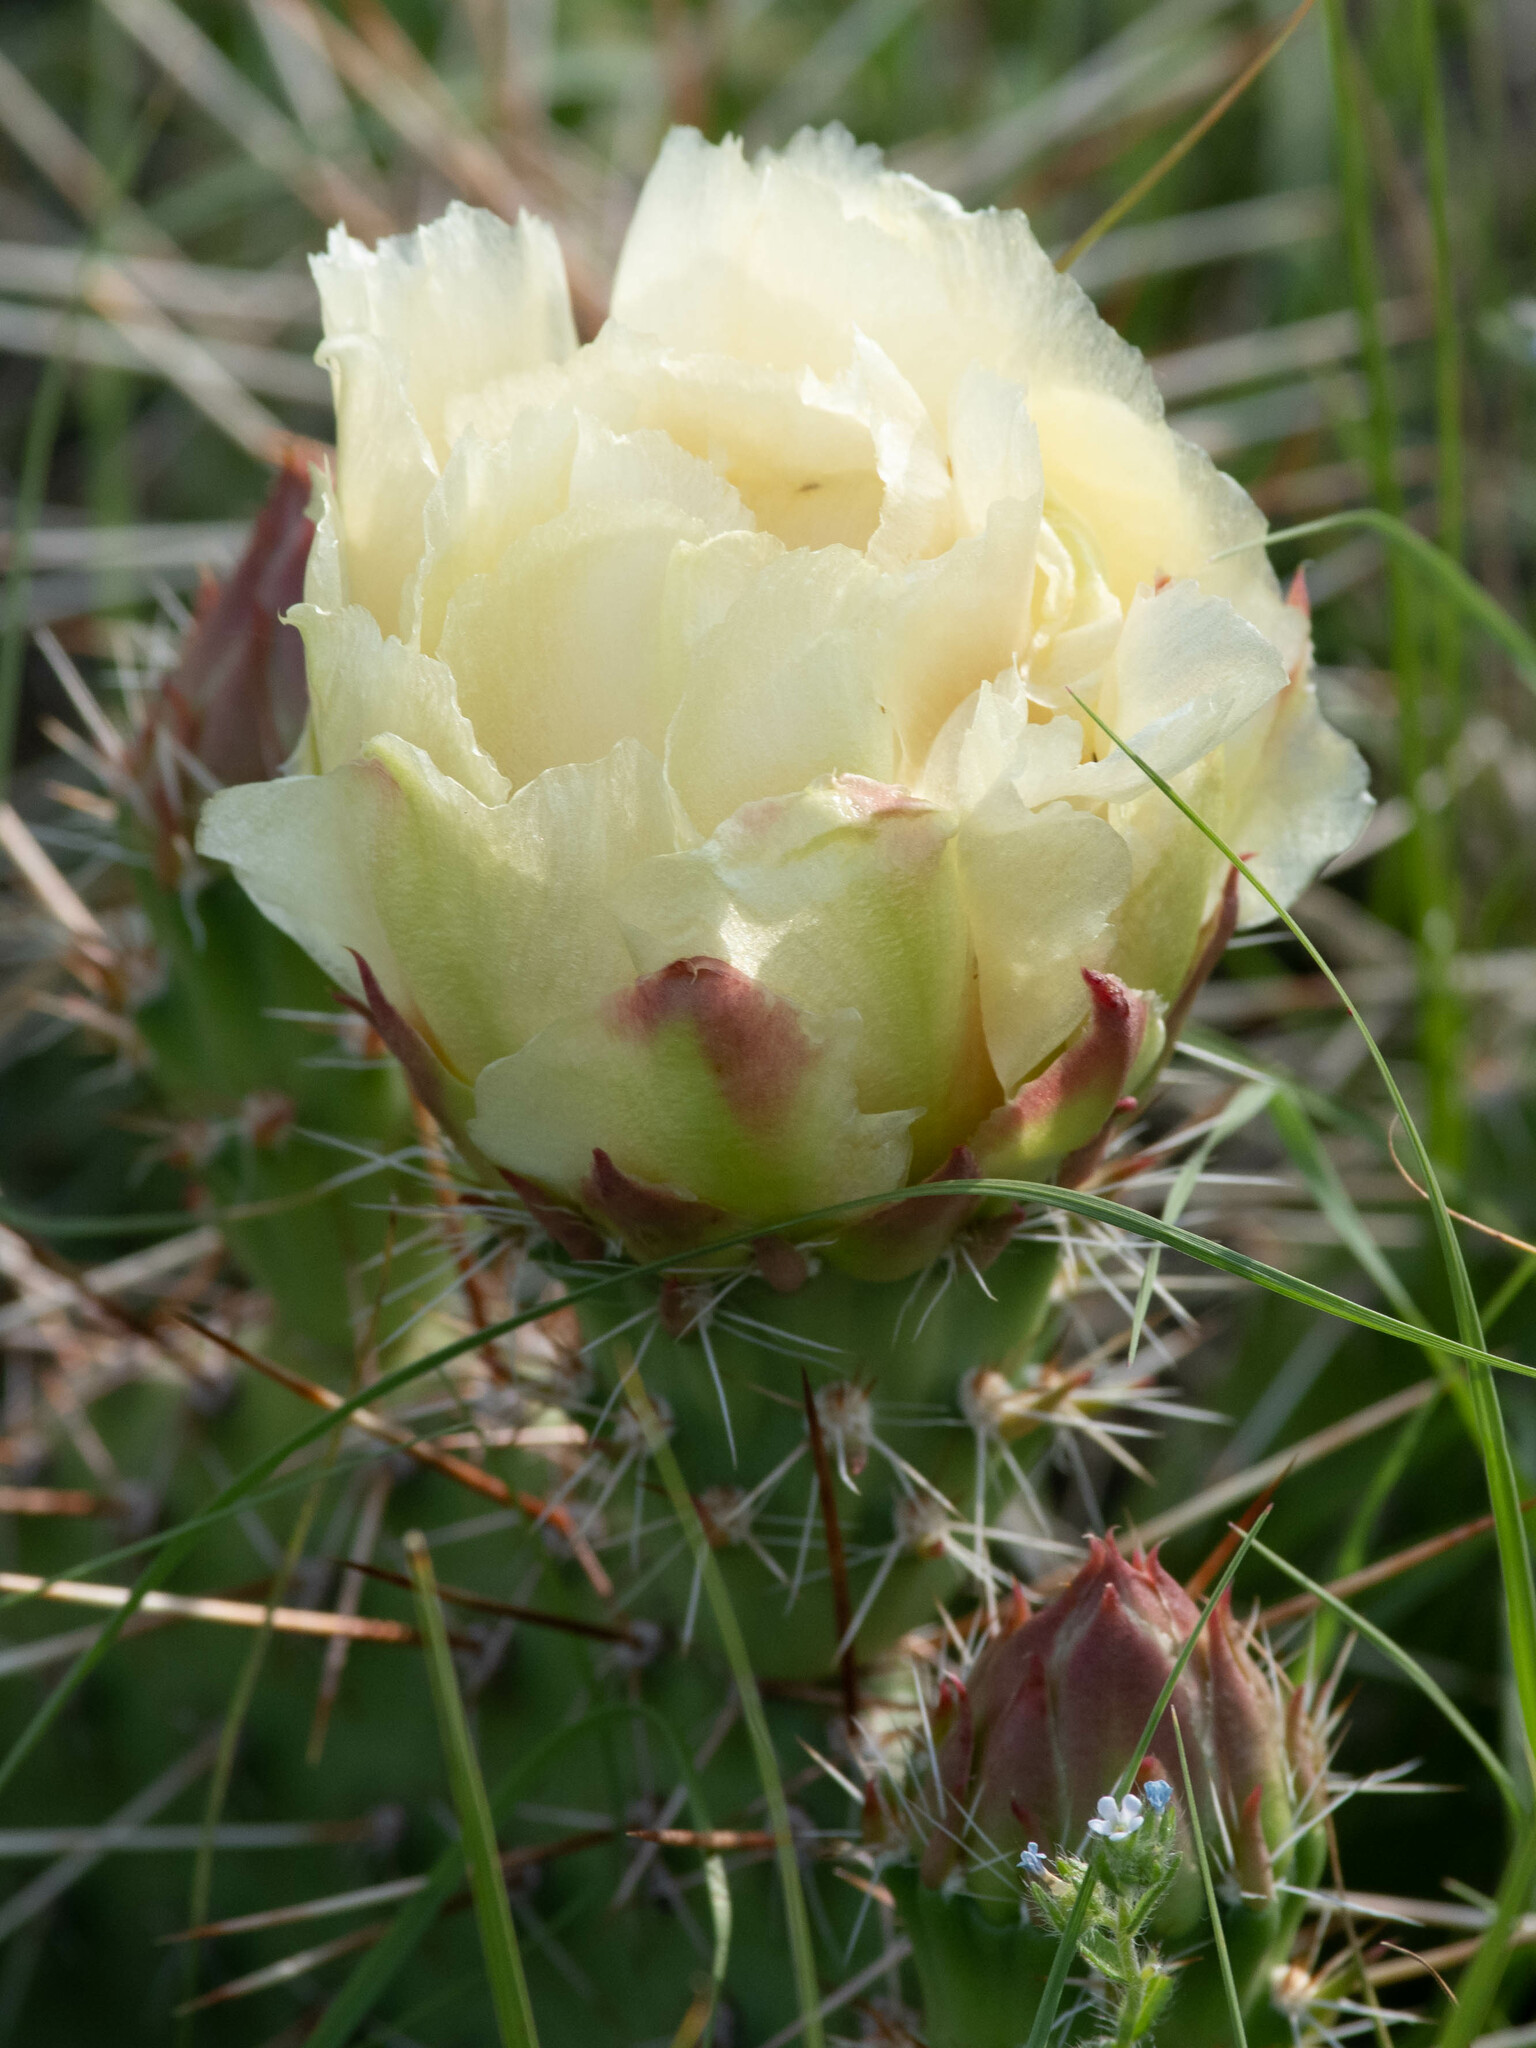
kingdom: Plantae
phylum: Tracheophyta
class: Magnoliopsida
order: Caryophyllales
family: Cactaceae
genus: Opuntia
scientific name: Opuntia polyacantha
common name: Plains prickly-pear
